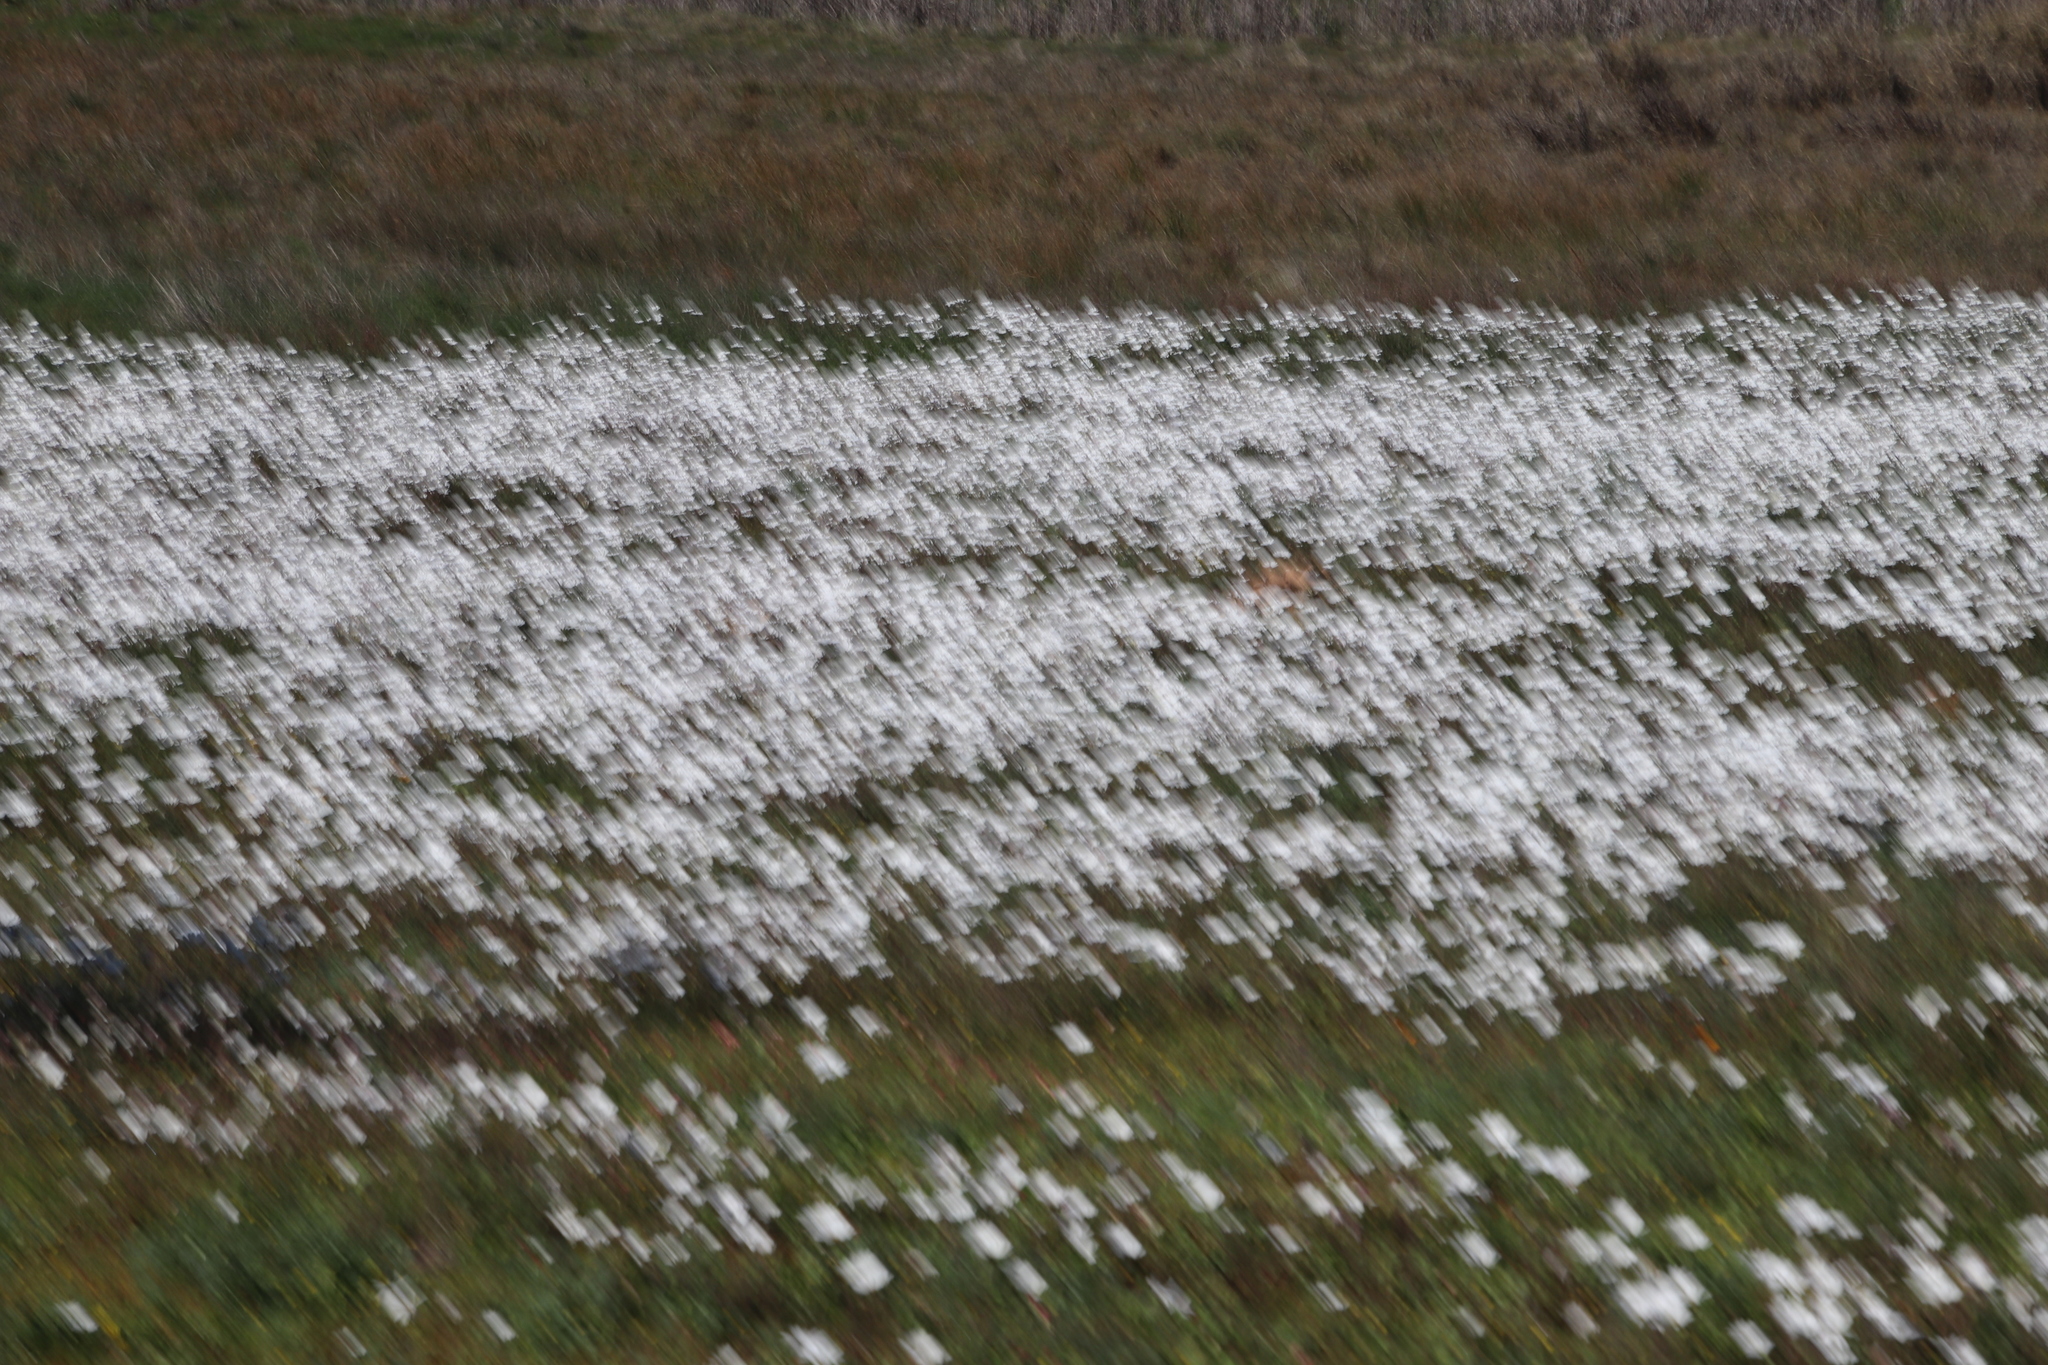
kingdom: Plantae
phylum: Tracheophyta
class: Magnoliopsida
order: Asterales
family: Asteraceae
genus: Dimorphotheca
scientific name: Dimorphotheca pluvialis
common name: Weather prophet
